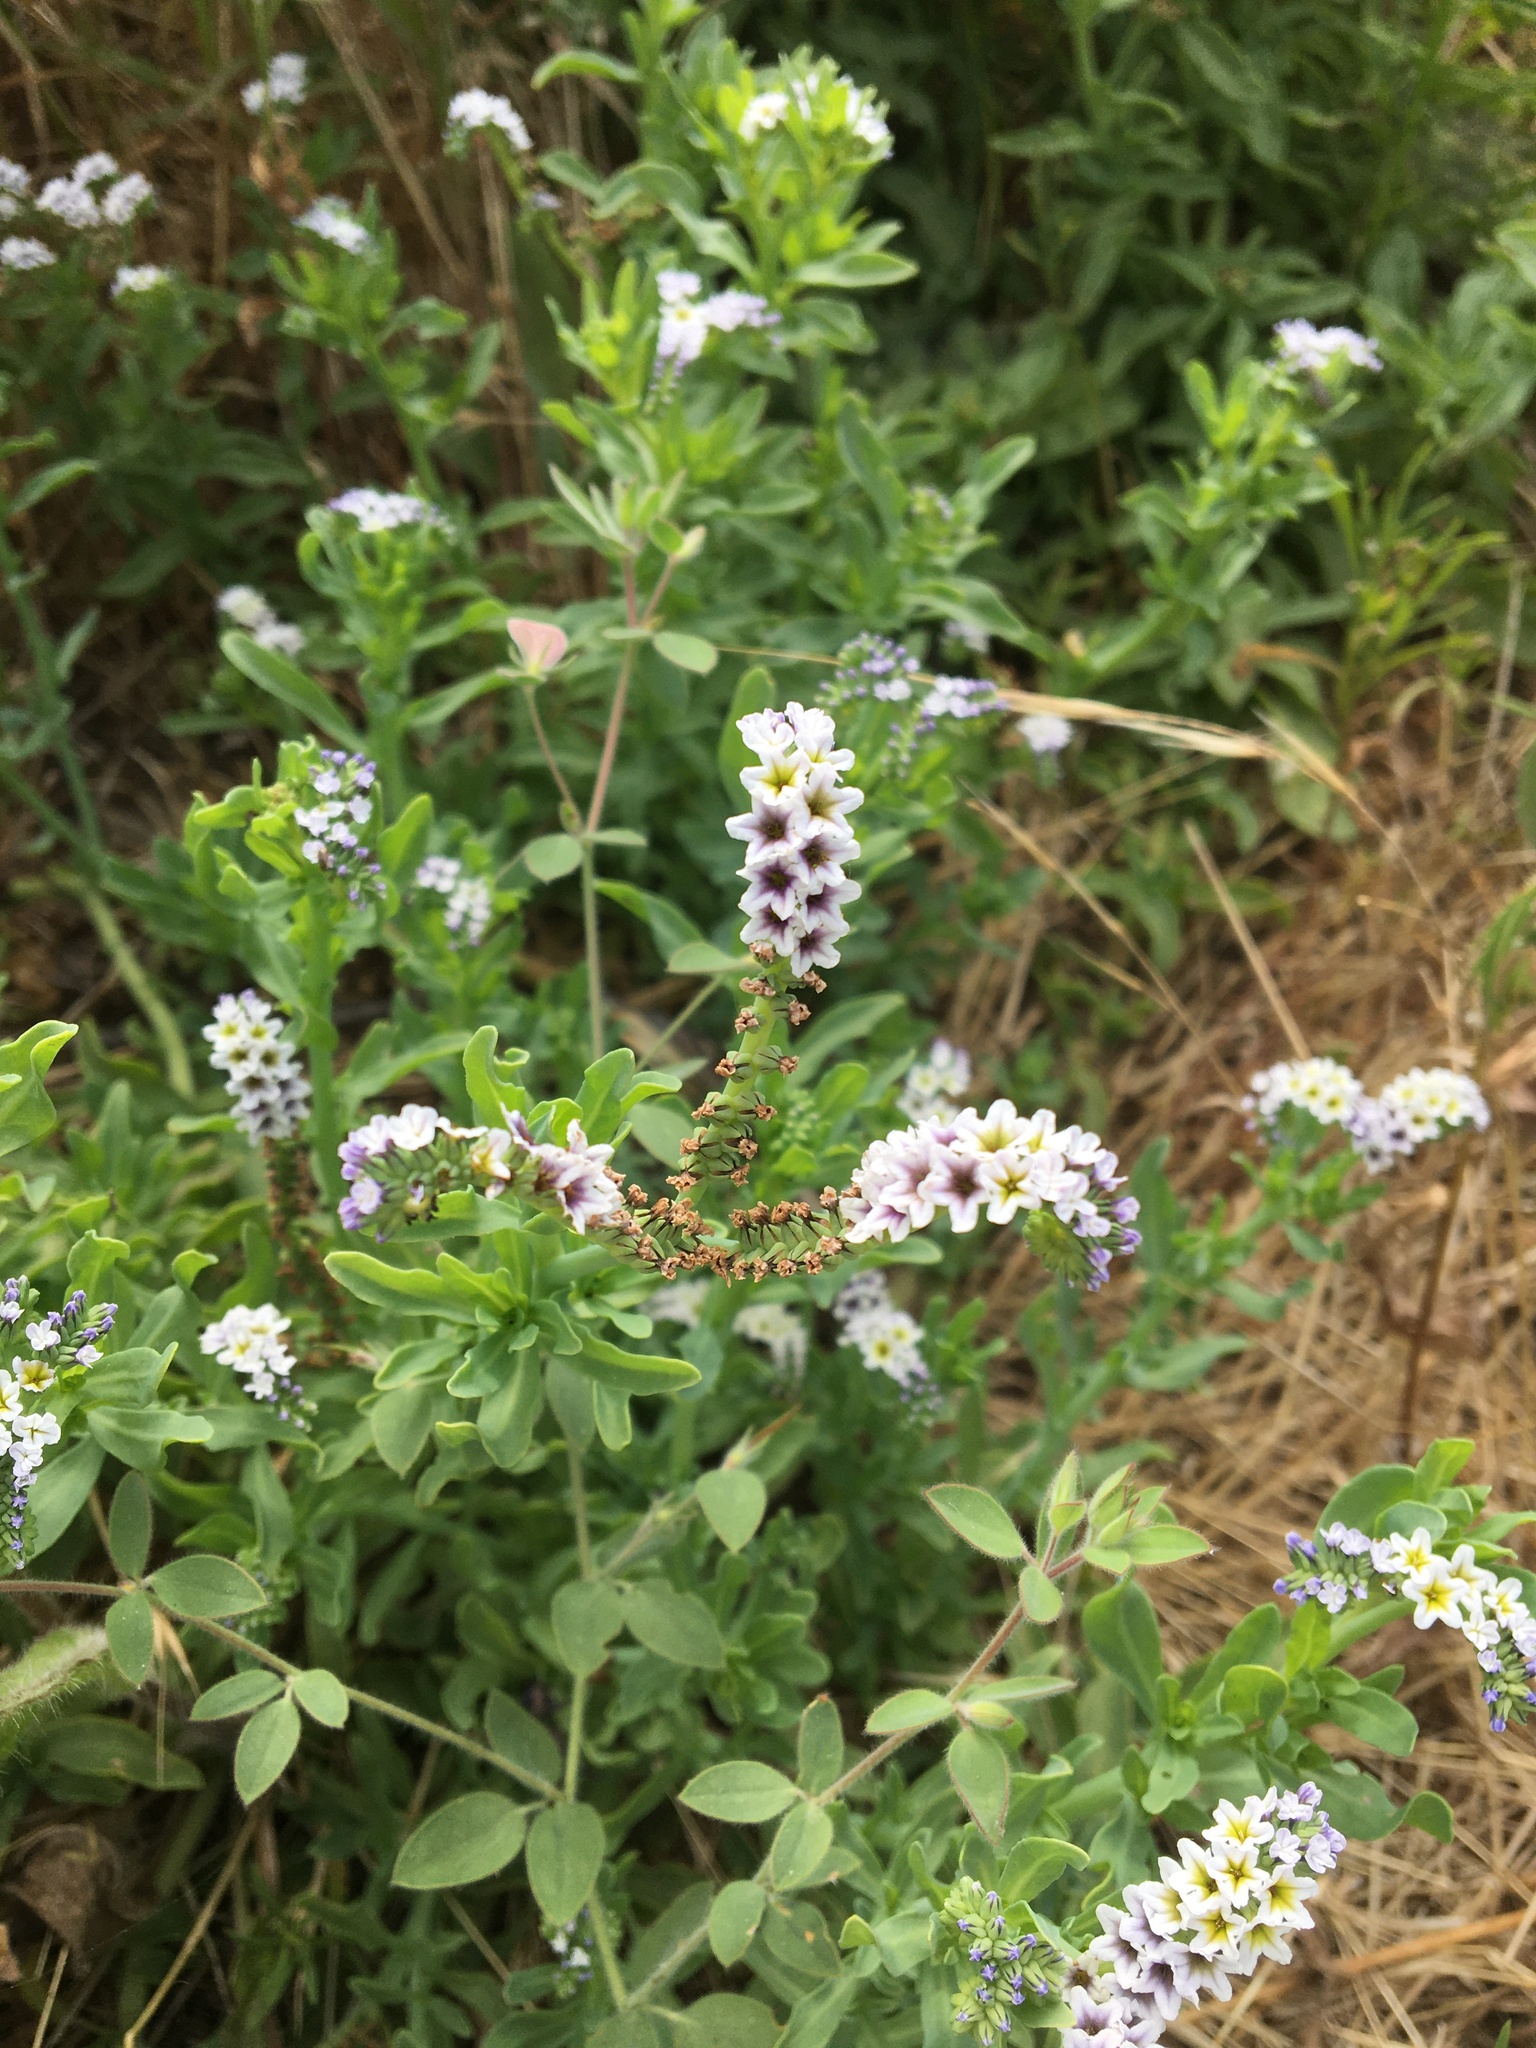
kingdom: Plantae
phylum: Tracheophyta
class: Magnoliopsida
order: Boraginales
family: Heliotropiaceae
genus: Heliotropium
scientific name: Heliotropium curassavicum
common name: Seaside heliotrope
